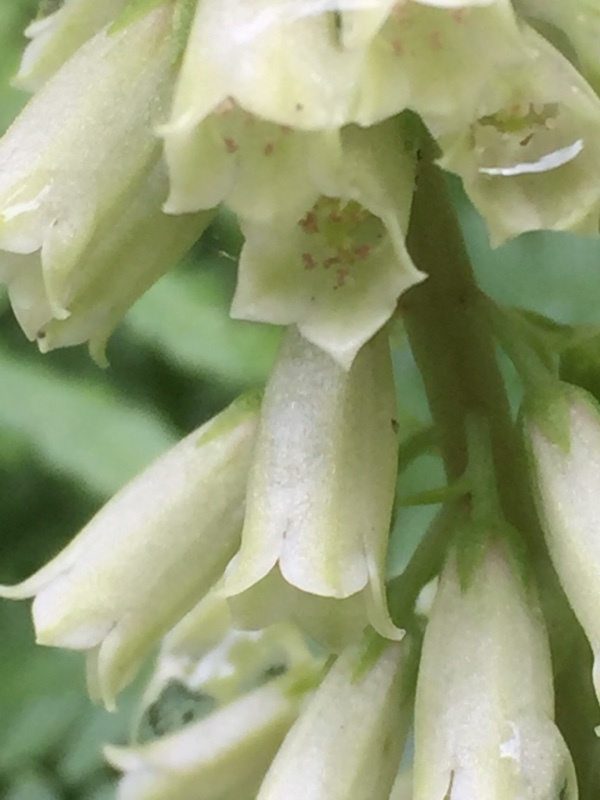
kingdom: Plantae
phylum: Tracheophyta
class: Magnoliopsida
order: Saxifragales
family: Crassulaceae
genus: Umbilicus
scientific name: Umbilicus rupestris
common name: Navelwort
